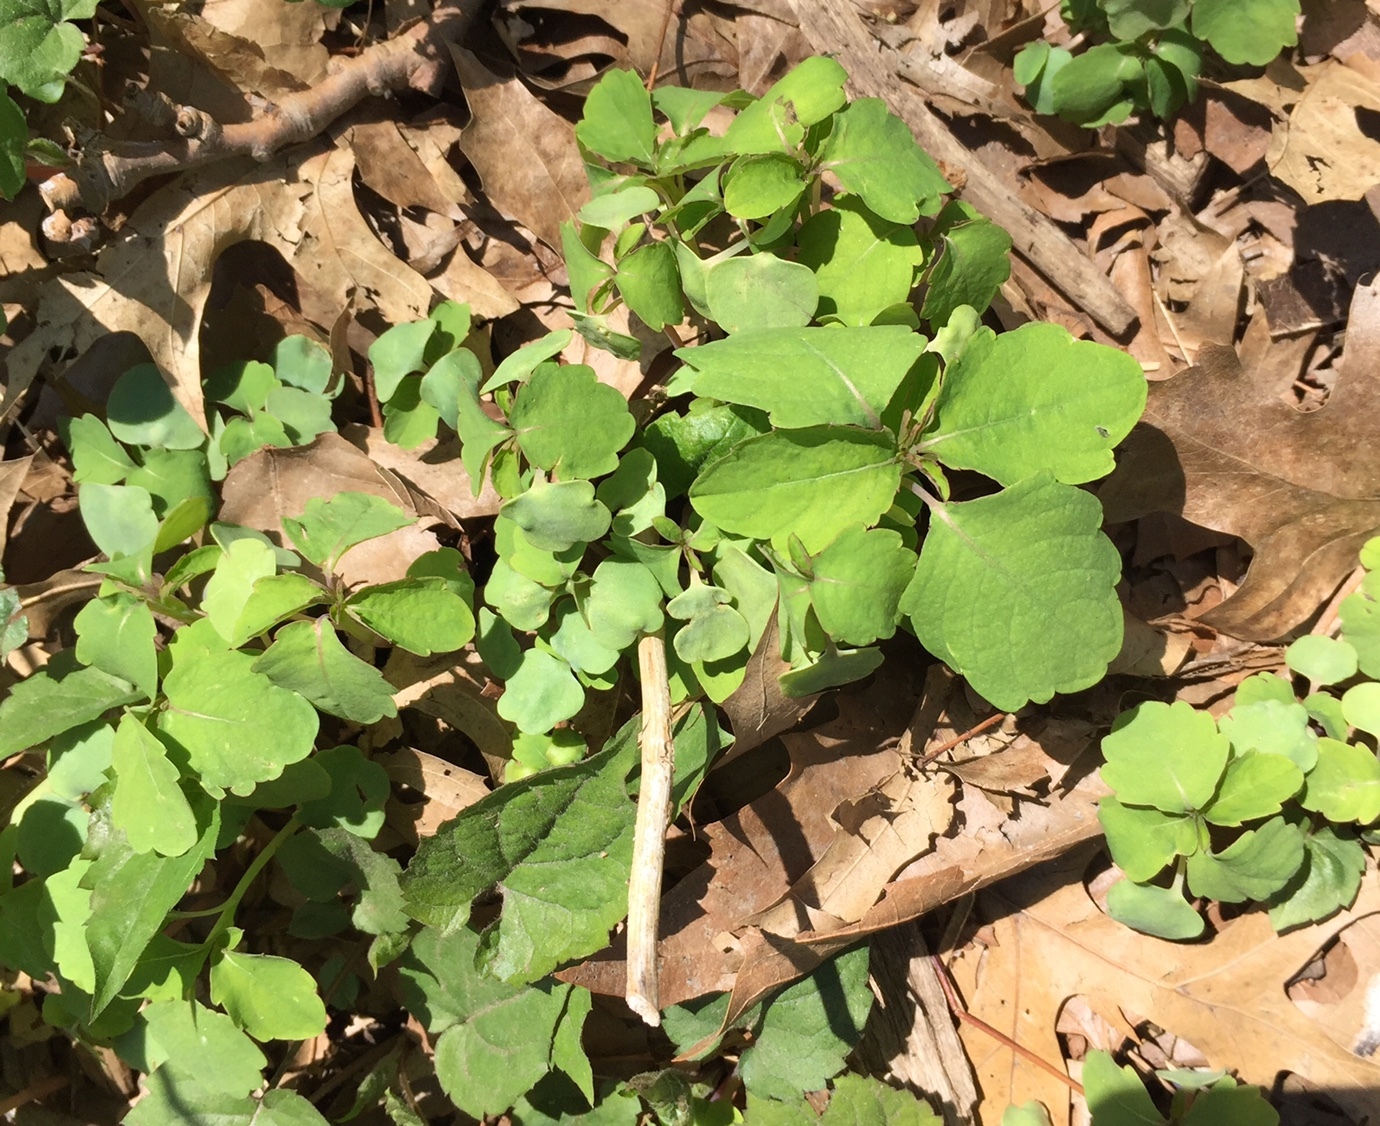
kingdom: Plantae
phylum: Tracheophyta
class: Magnoliopsida
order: Ericales
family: Balsaminaceae
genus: Impatiens
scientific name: Impatiens capensis
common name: Orange balsam
